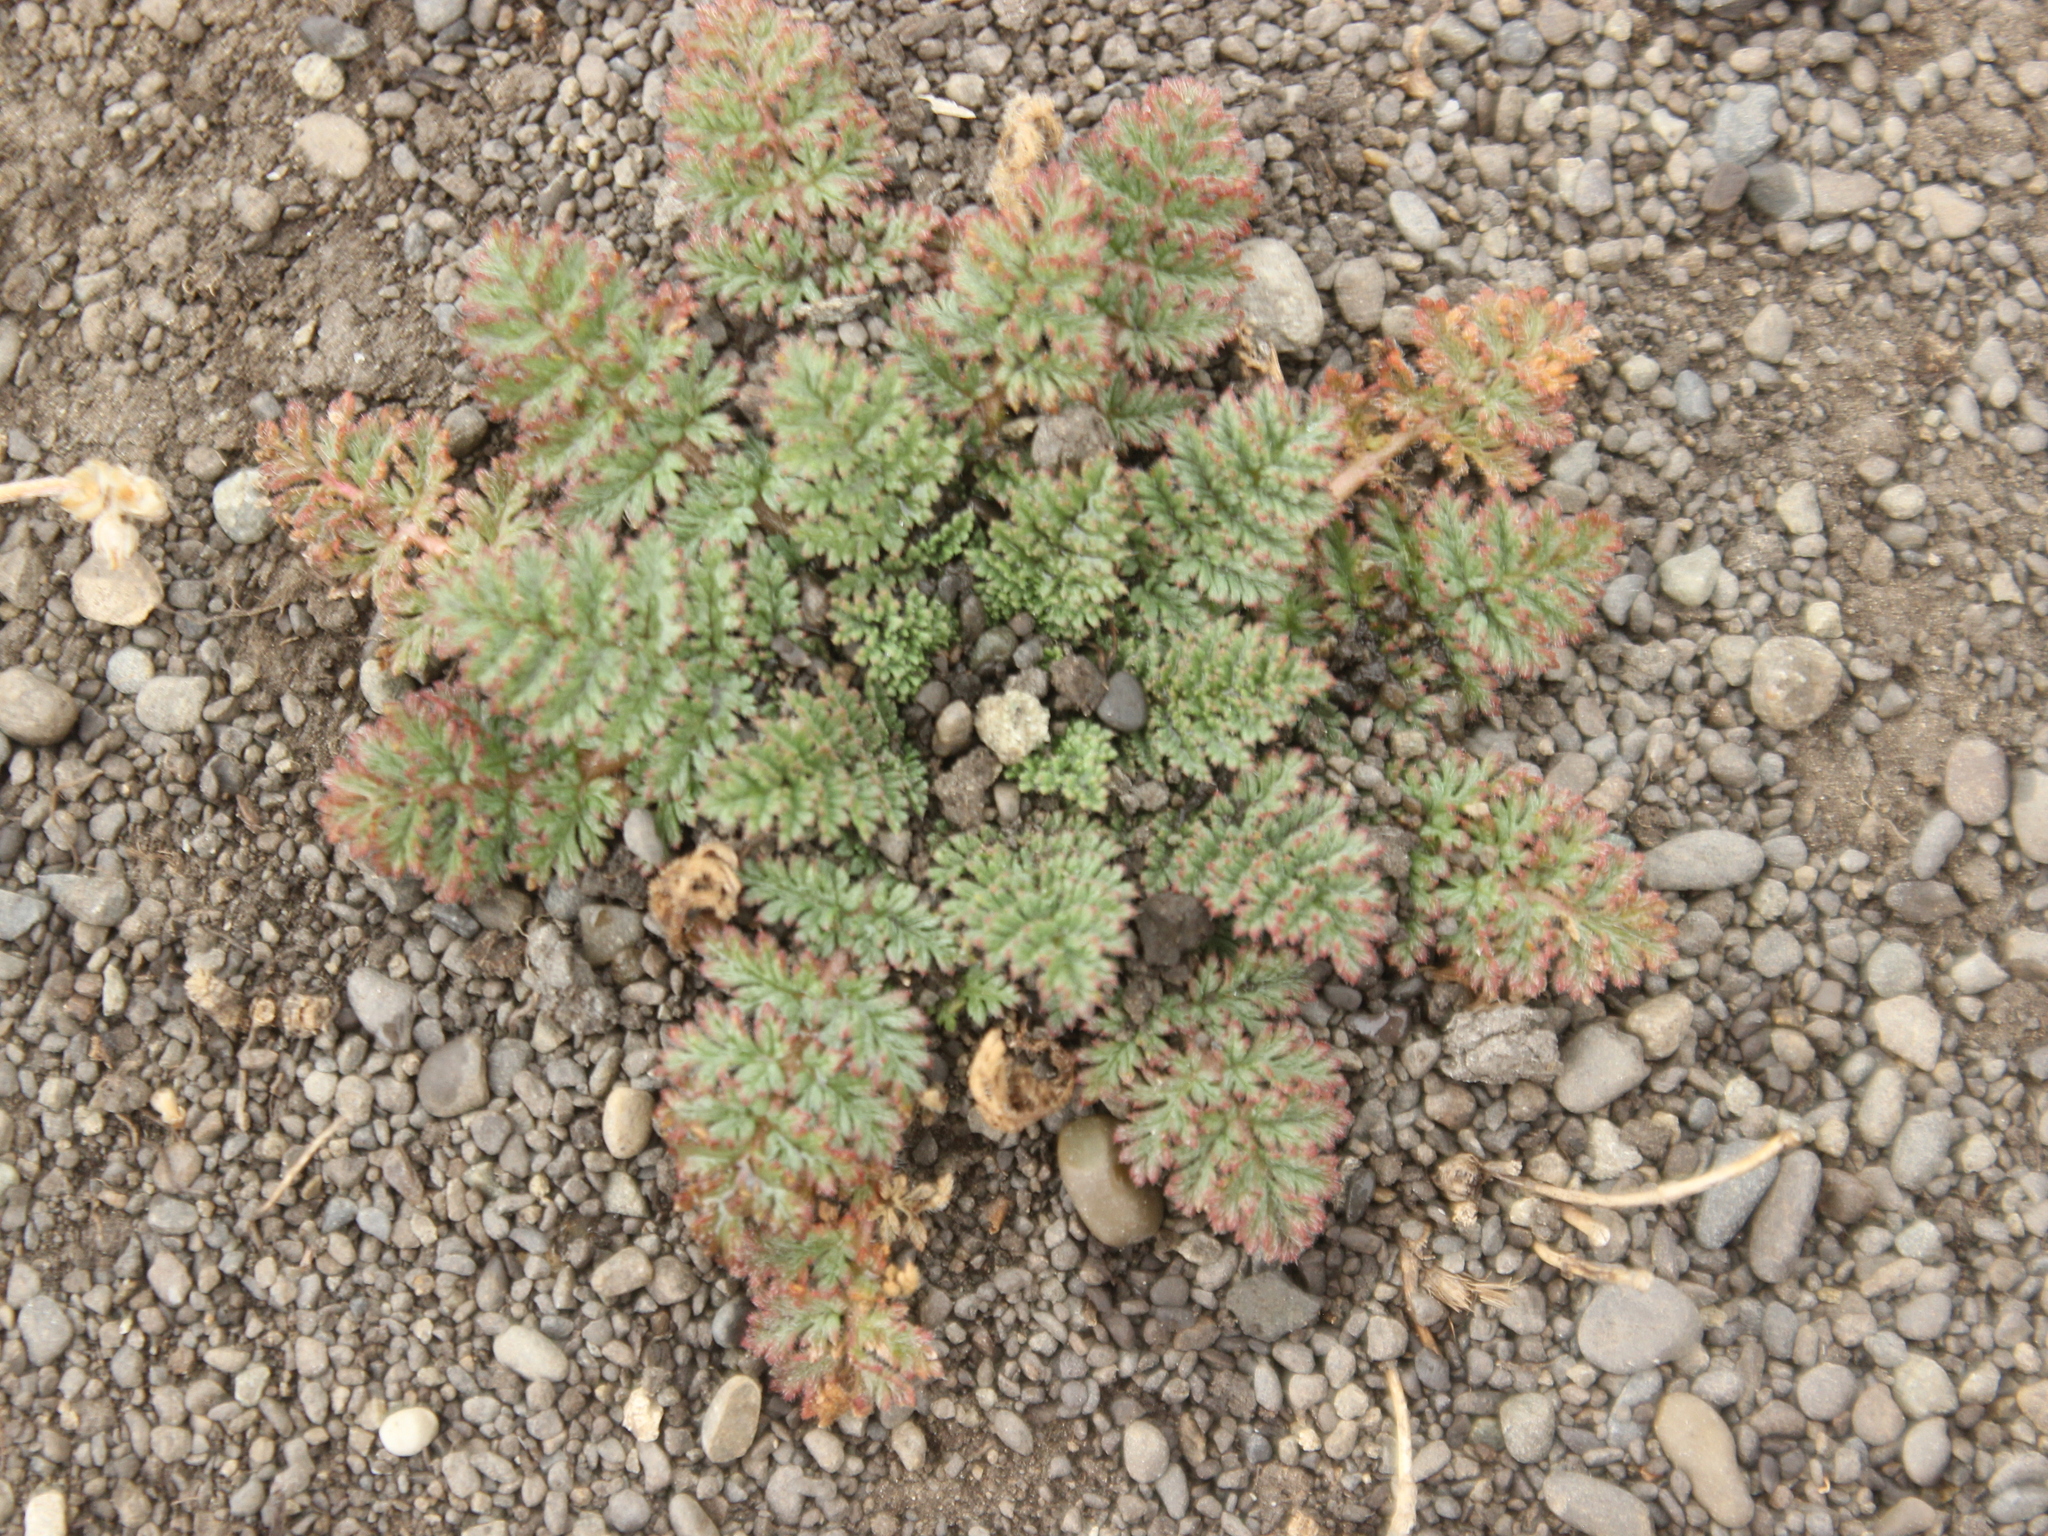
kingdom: Plantae
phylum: Tracheophyta
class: Magnoliopsida
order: Geraniales
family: Geraniaceae
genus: Erodium
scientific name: Erodium cicutarium
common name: Common stork's-bill
